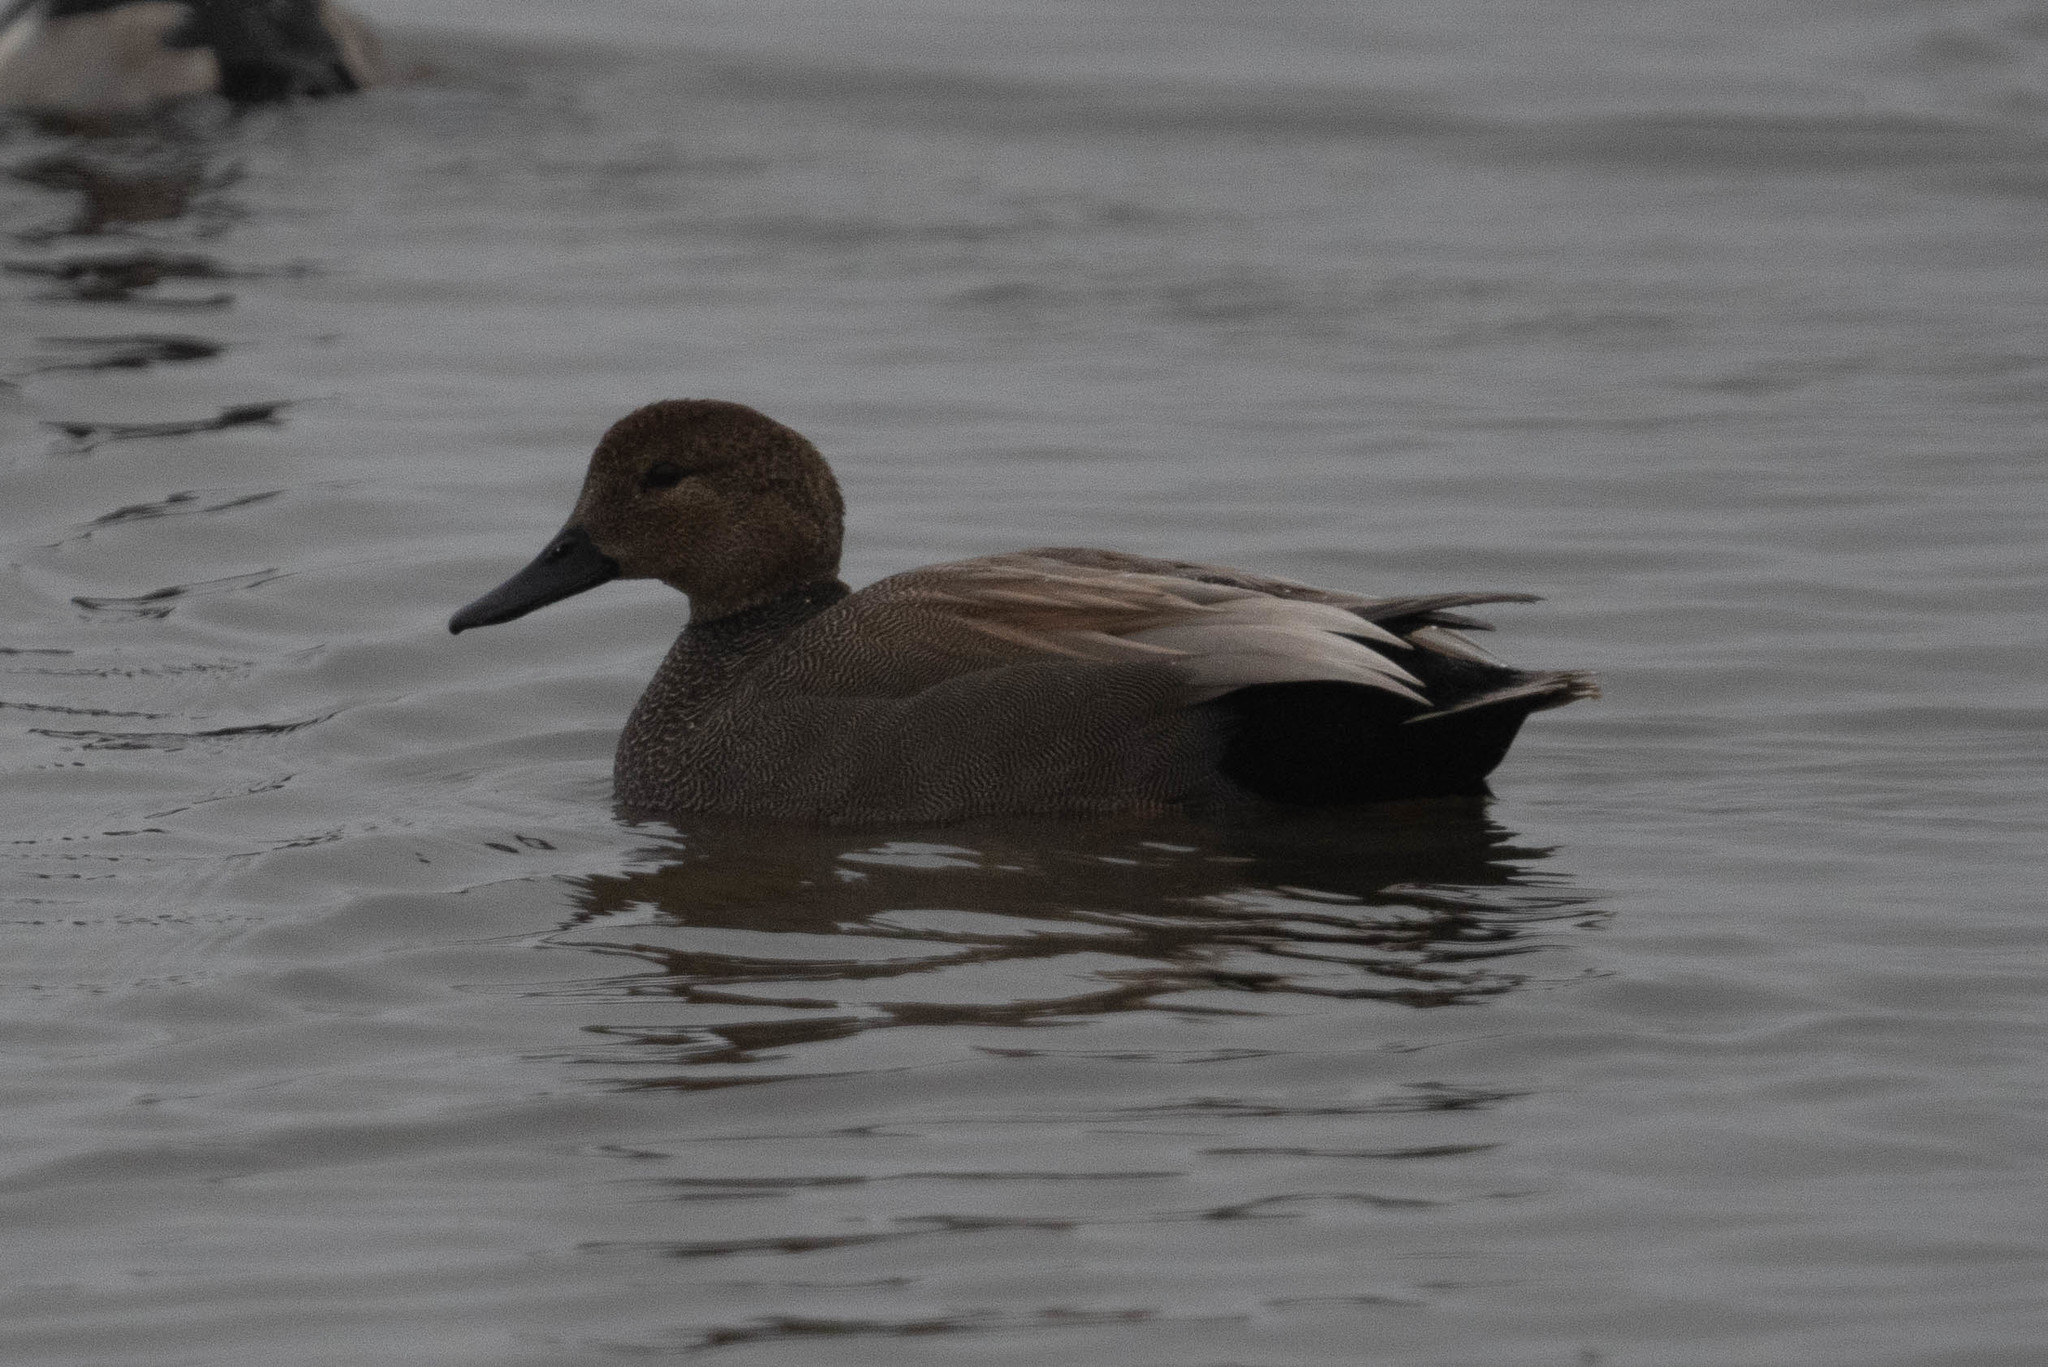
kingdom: Animalia
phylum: Chordata
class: Aves
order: Anseriformes
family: Anatidae
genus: Mareca
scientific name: Mareca strepera
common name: Gadwall
